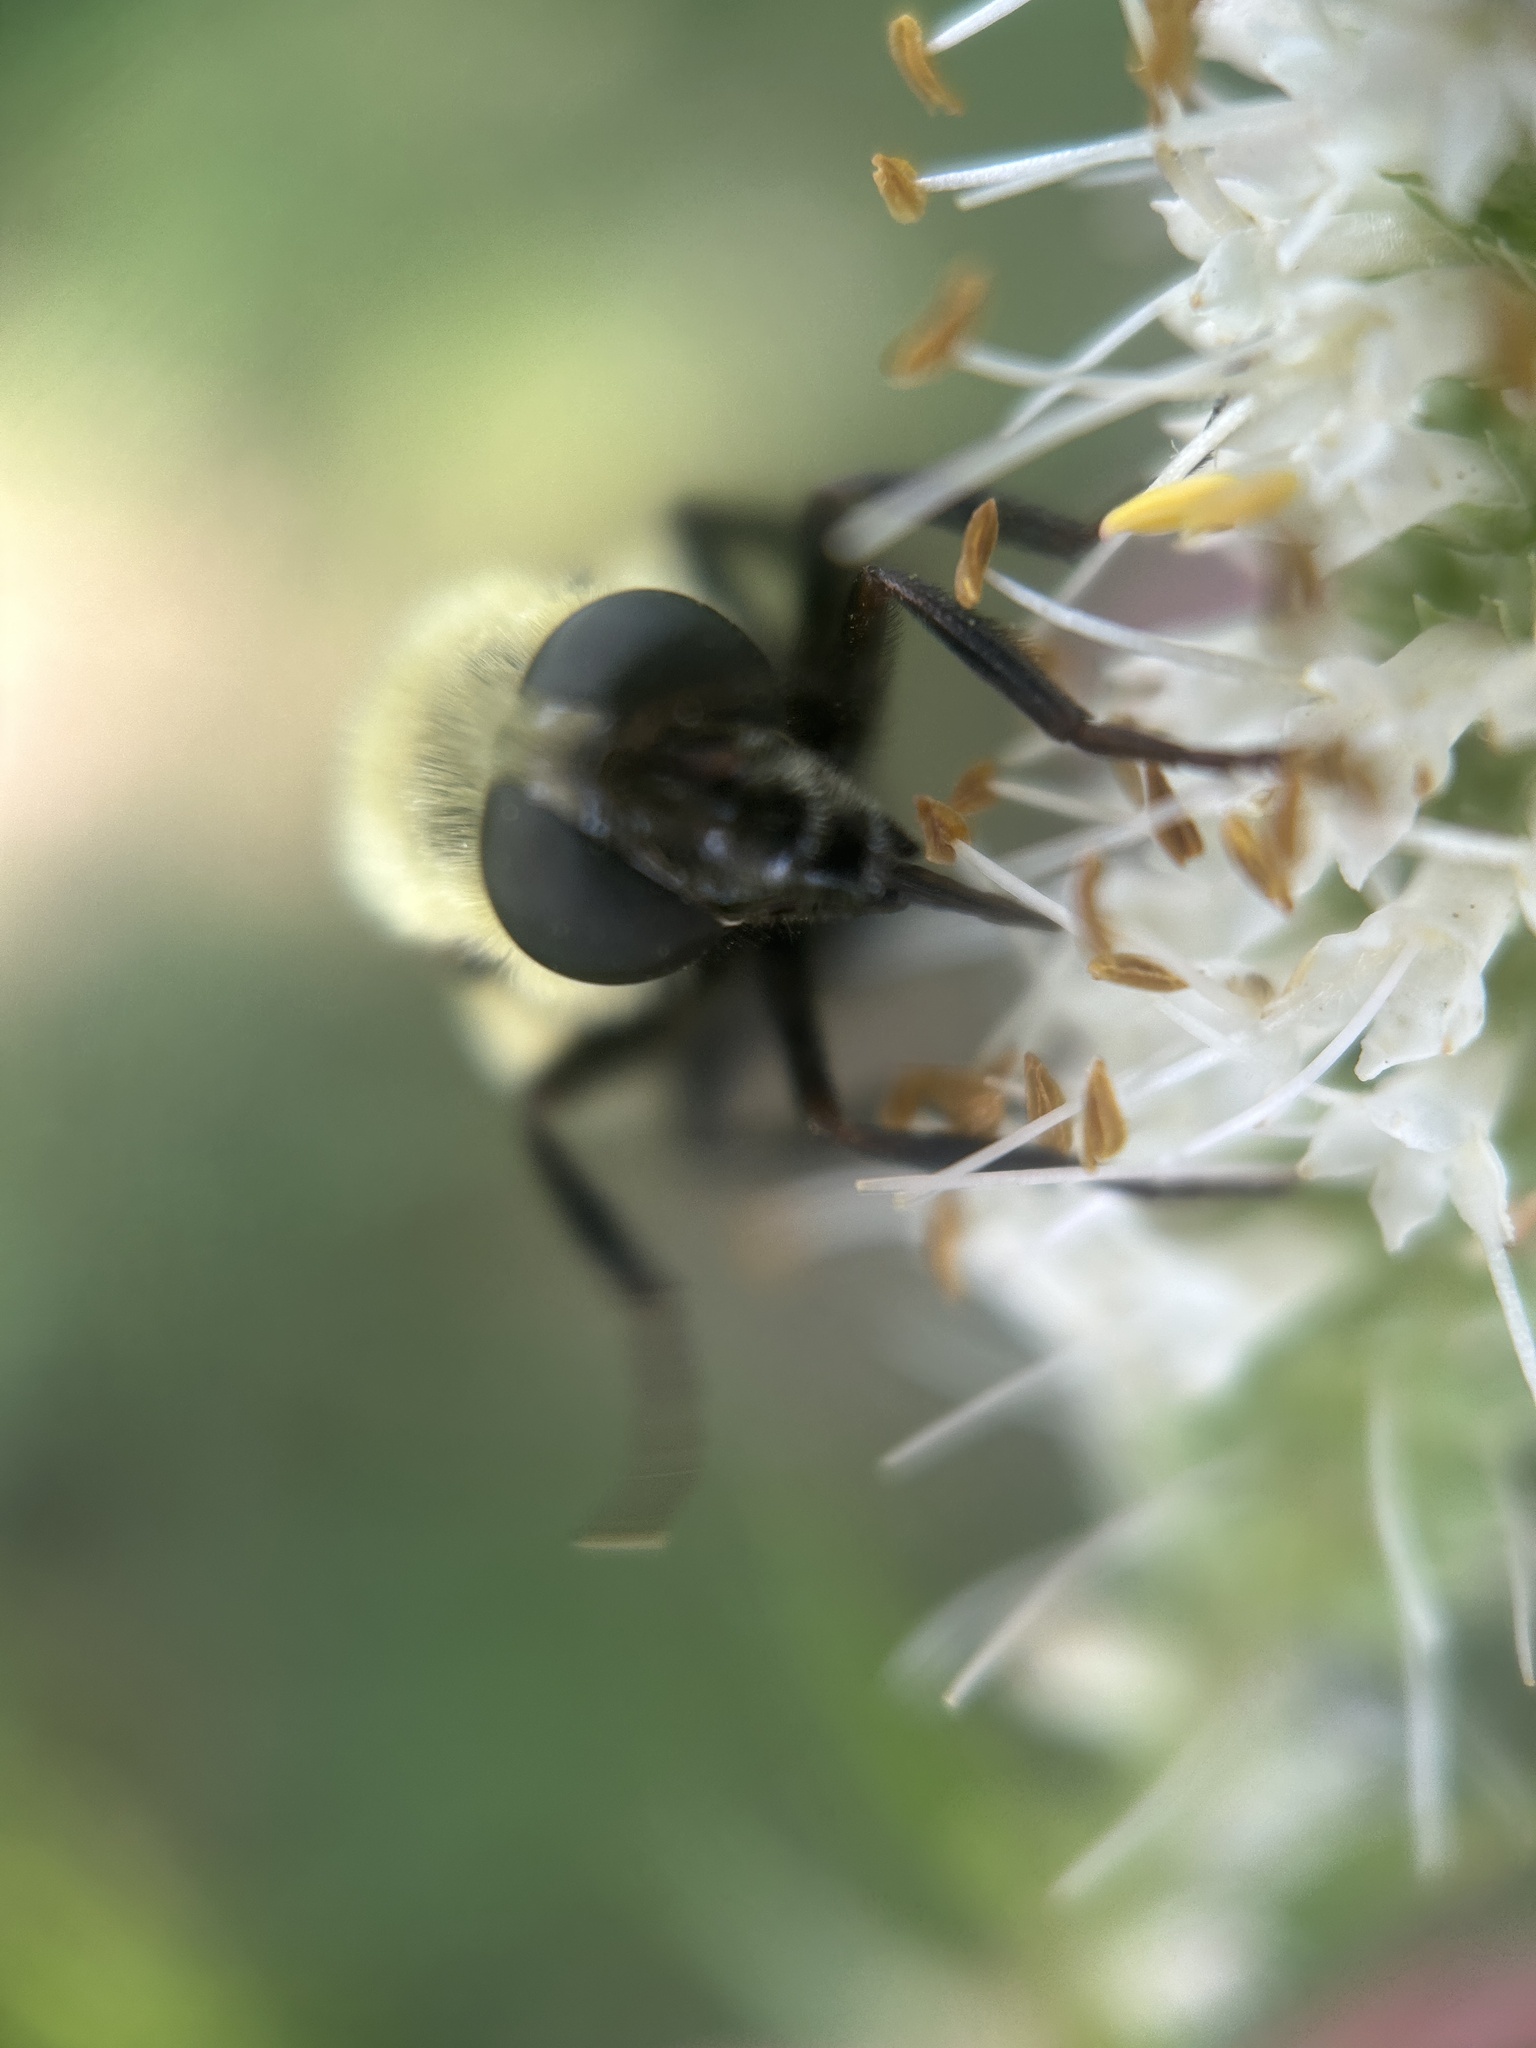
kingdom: Animalia
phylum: Arthropoda
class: Insecta
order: Diptera
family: Syrphidae
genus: Volucella
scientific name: Volucella evecta
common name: Eastern swiftwing
